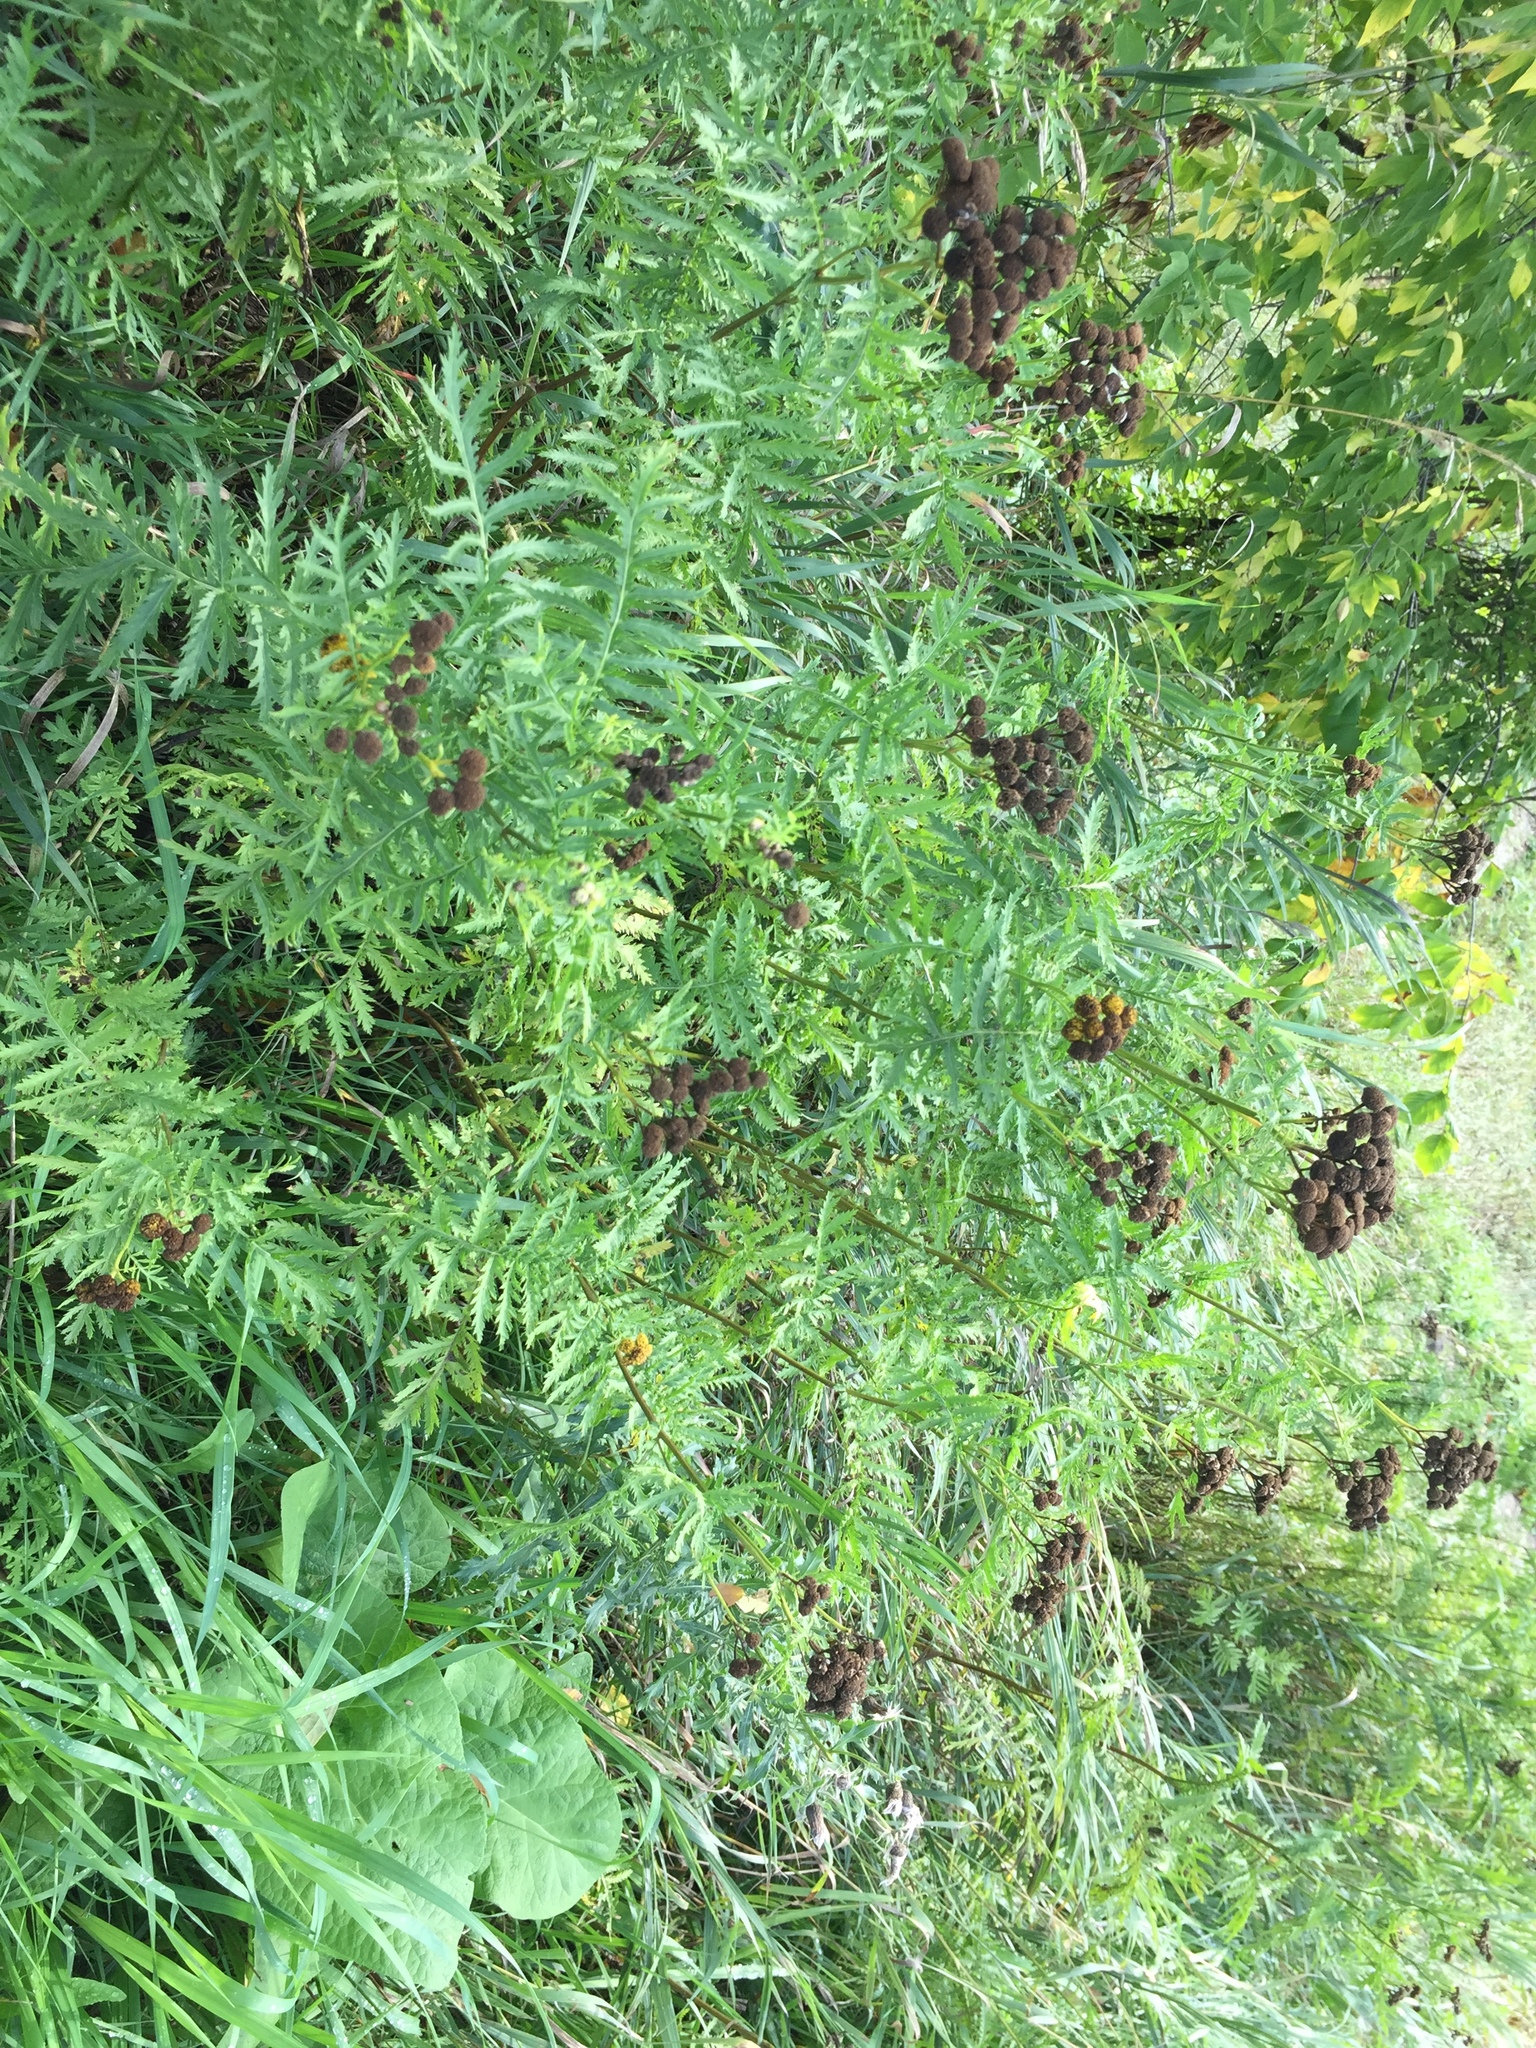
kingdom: Plantae
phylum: Tracheophyta
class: Magnoliopsida
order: Asterales
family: Asteraceae
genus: Tanacetum
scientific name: Tanacetum vulgare
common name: Common tansy
